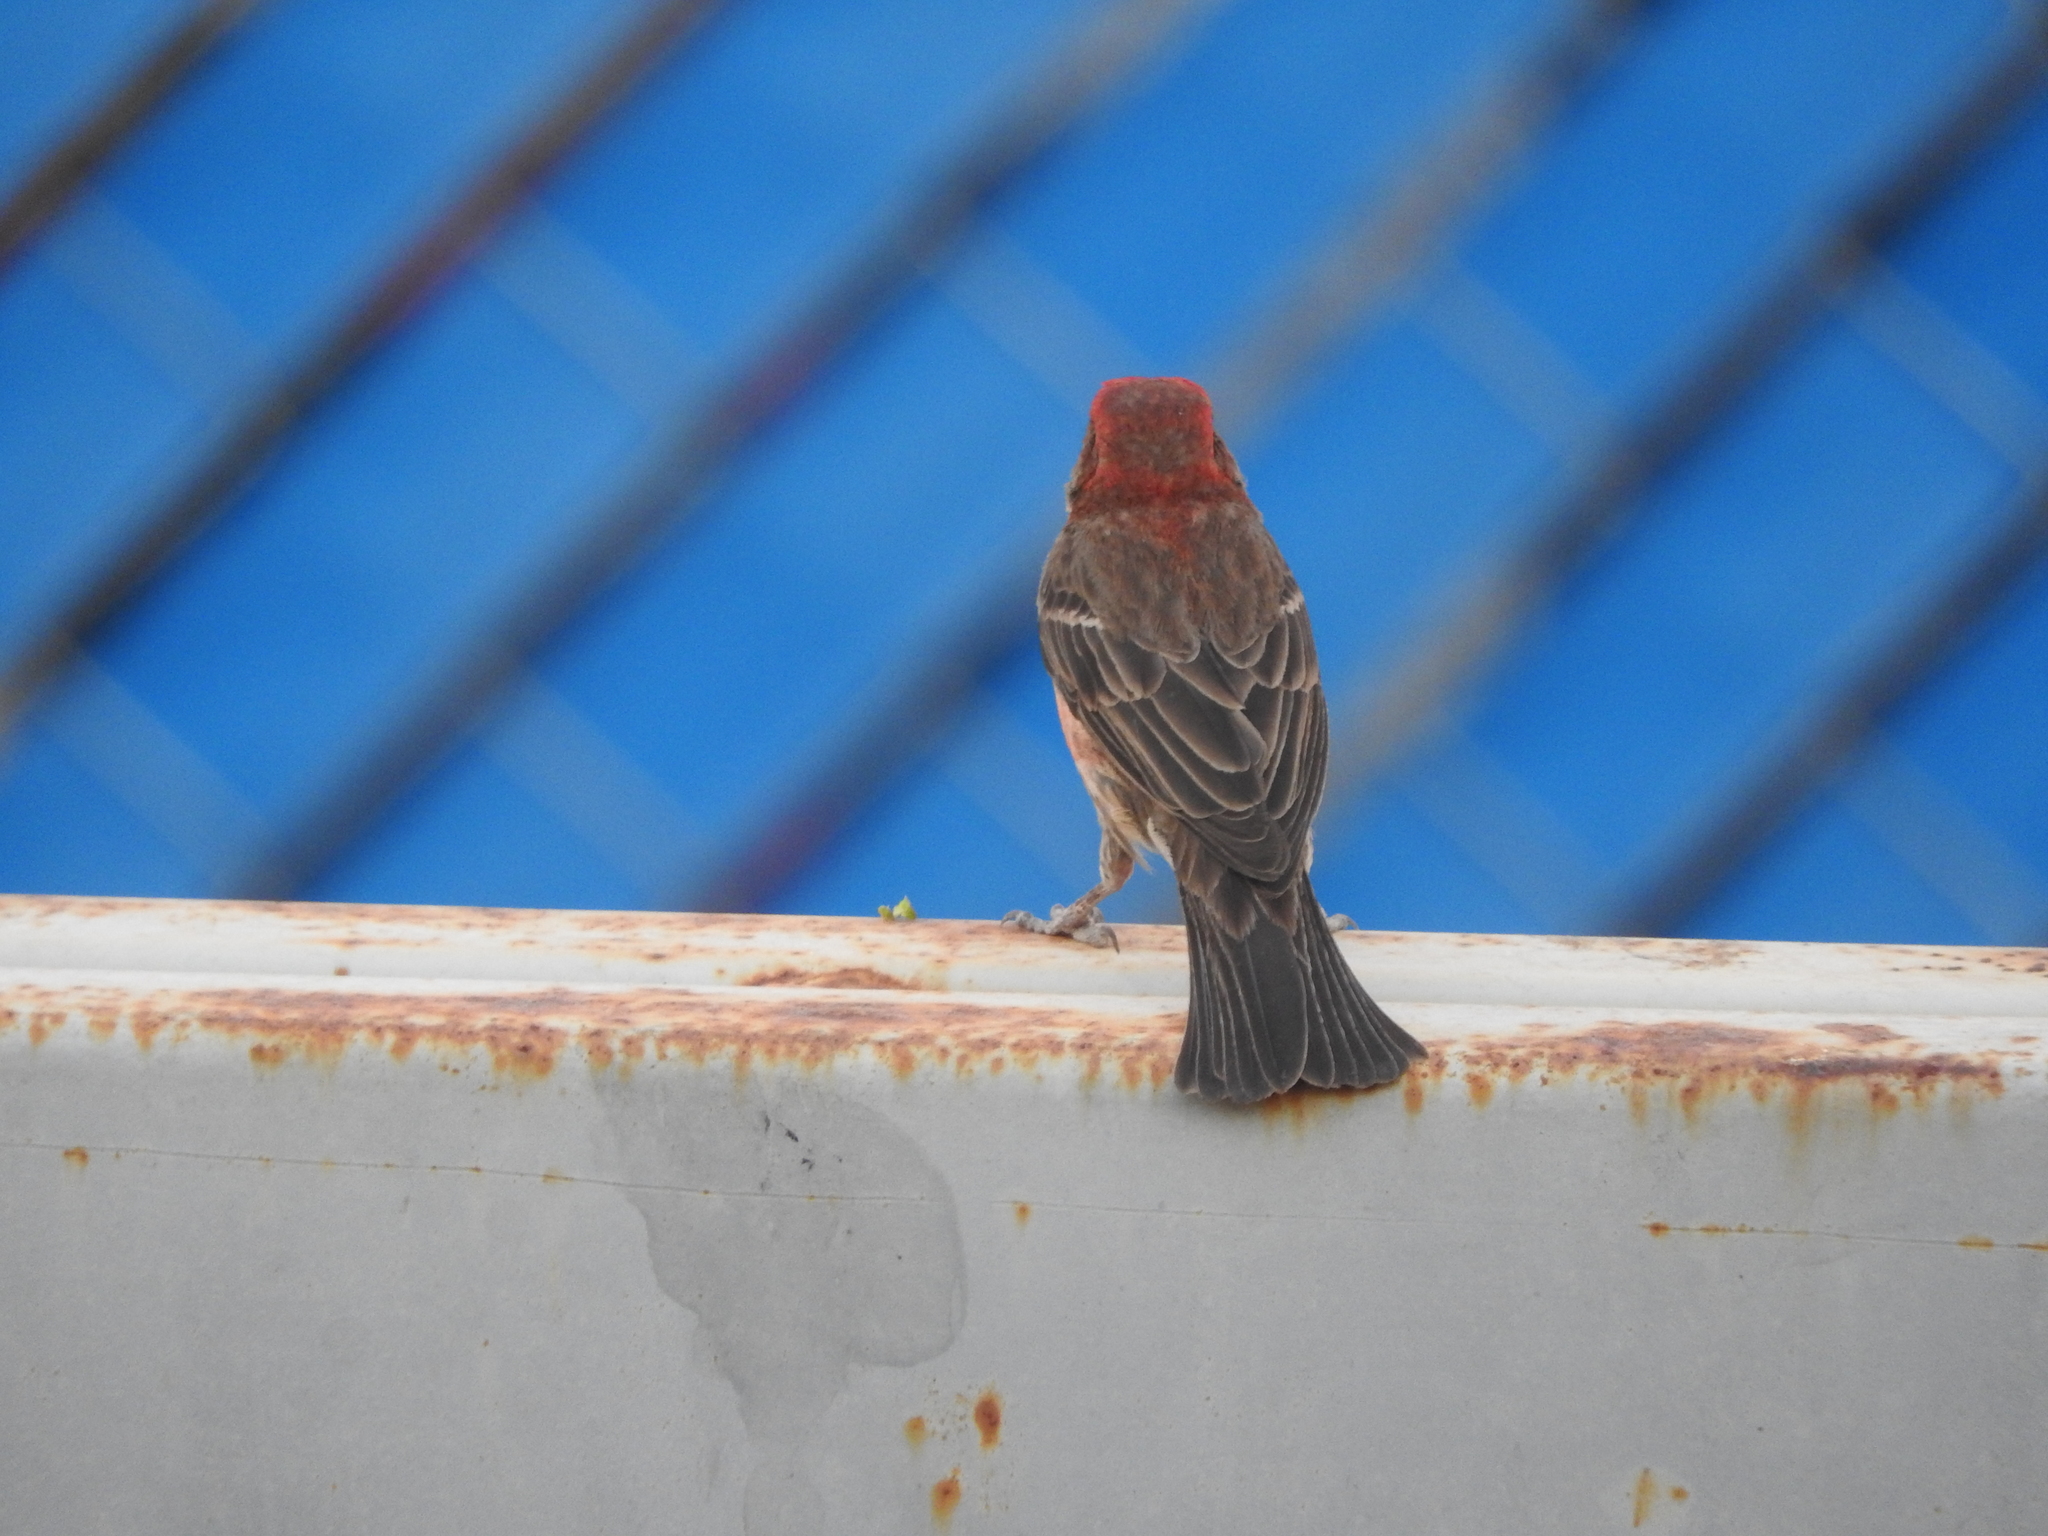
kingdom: Animalia
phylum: Chordata
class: Aves
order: Passeriformes
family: Fringillidae
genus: Haemorhous
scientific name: Haemorhous mexicanus
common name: House finch
